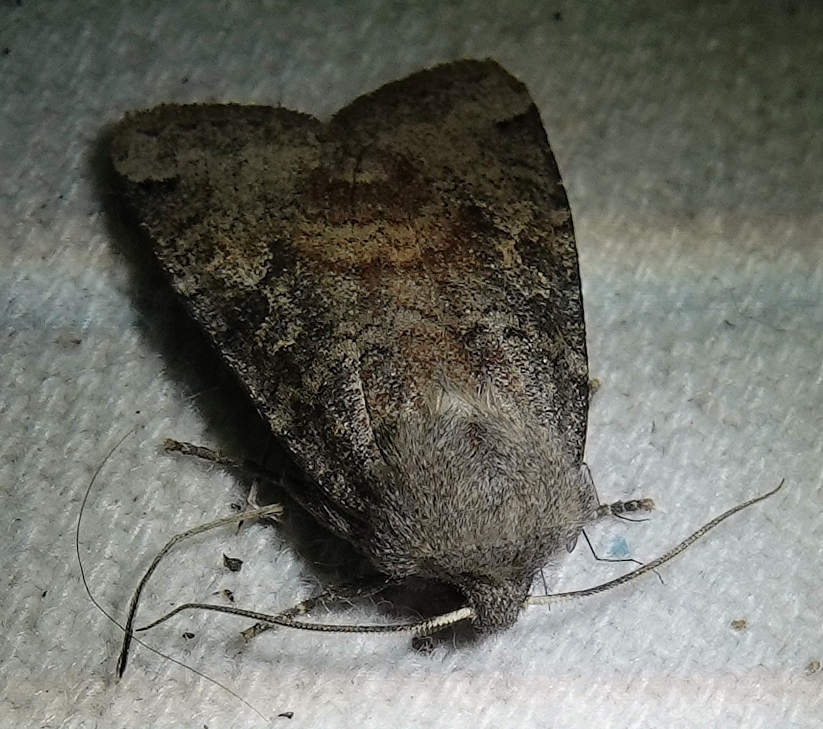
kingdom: Animalia
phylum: Arthropoda
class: Insecta
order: Lepidoptera
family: Noctuidae
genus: Homoglaea
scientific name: Homoglaea carbonaria
